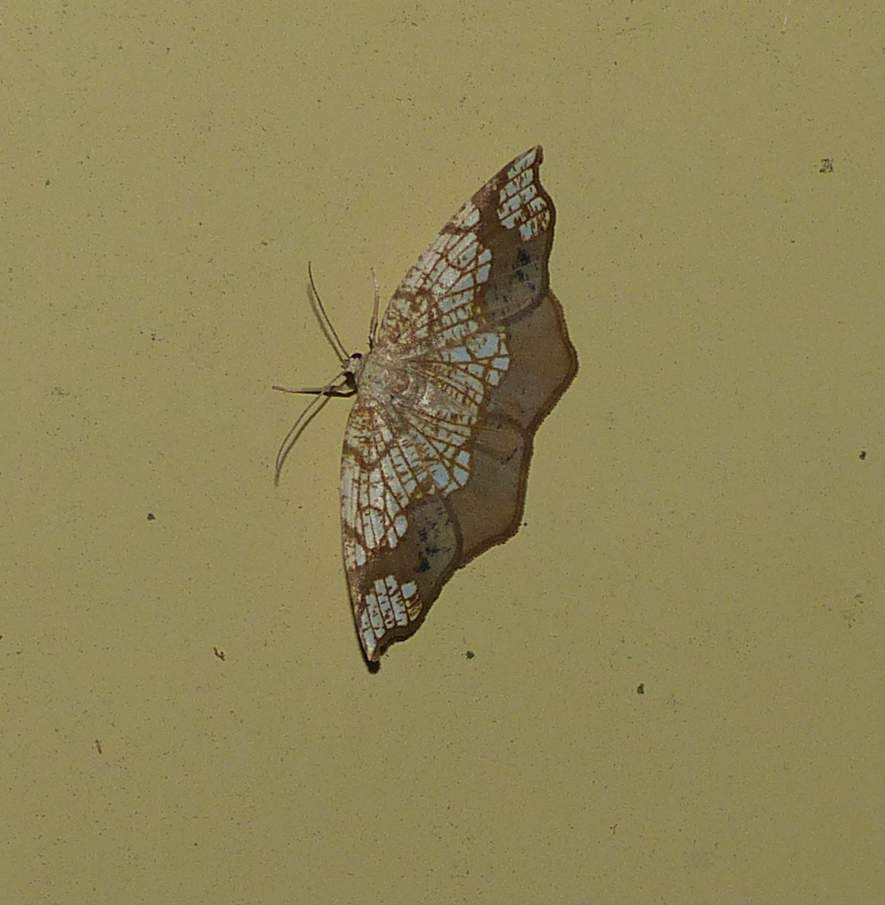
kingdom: Animalia
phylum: Arthropoda
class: Insecta
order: Lepidoptera
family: Geometridae
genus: Nematocampa
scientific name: Nematocampa resistaria
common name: Horned spanworm moth
